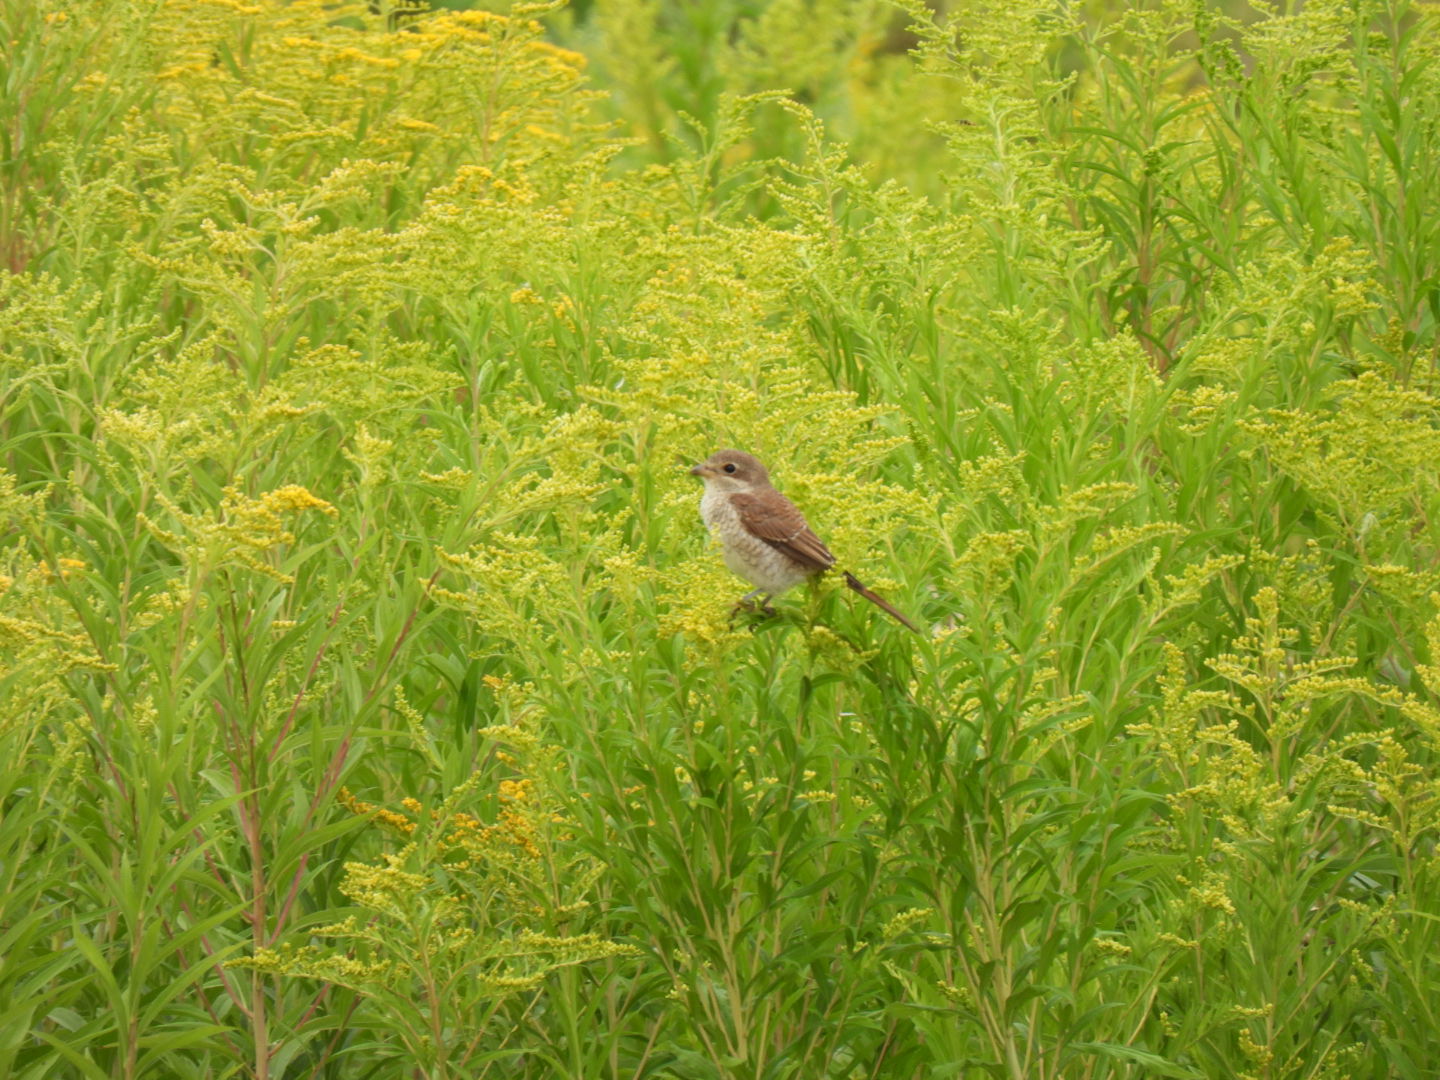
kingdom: Animalia
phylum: Chordata
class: Aves
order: Passeriformes
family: Laniidae
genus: Lanius
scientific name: Lanius collurio
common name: Red-backed shrike
